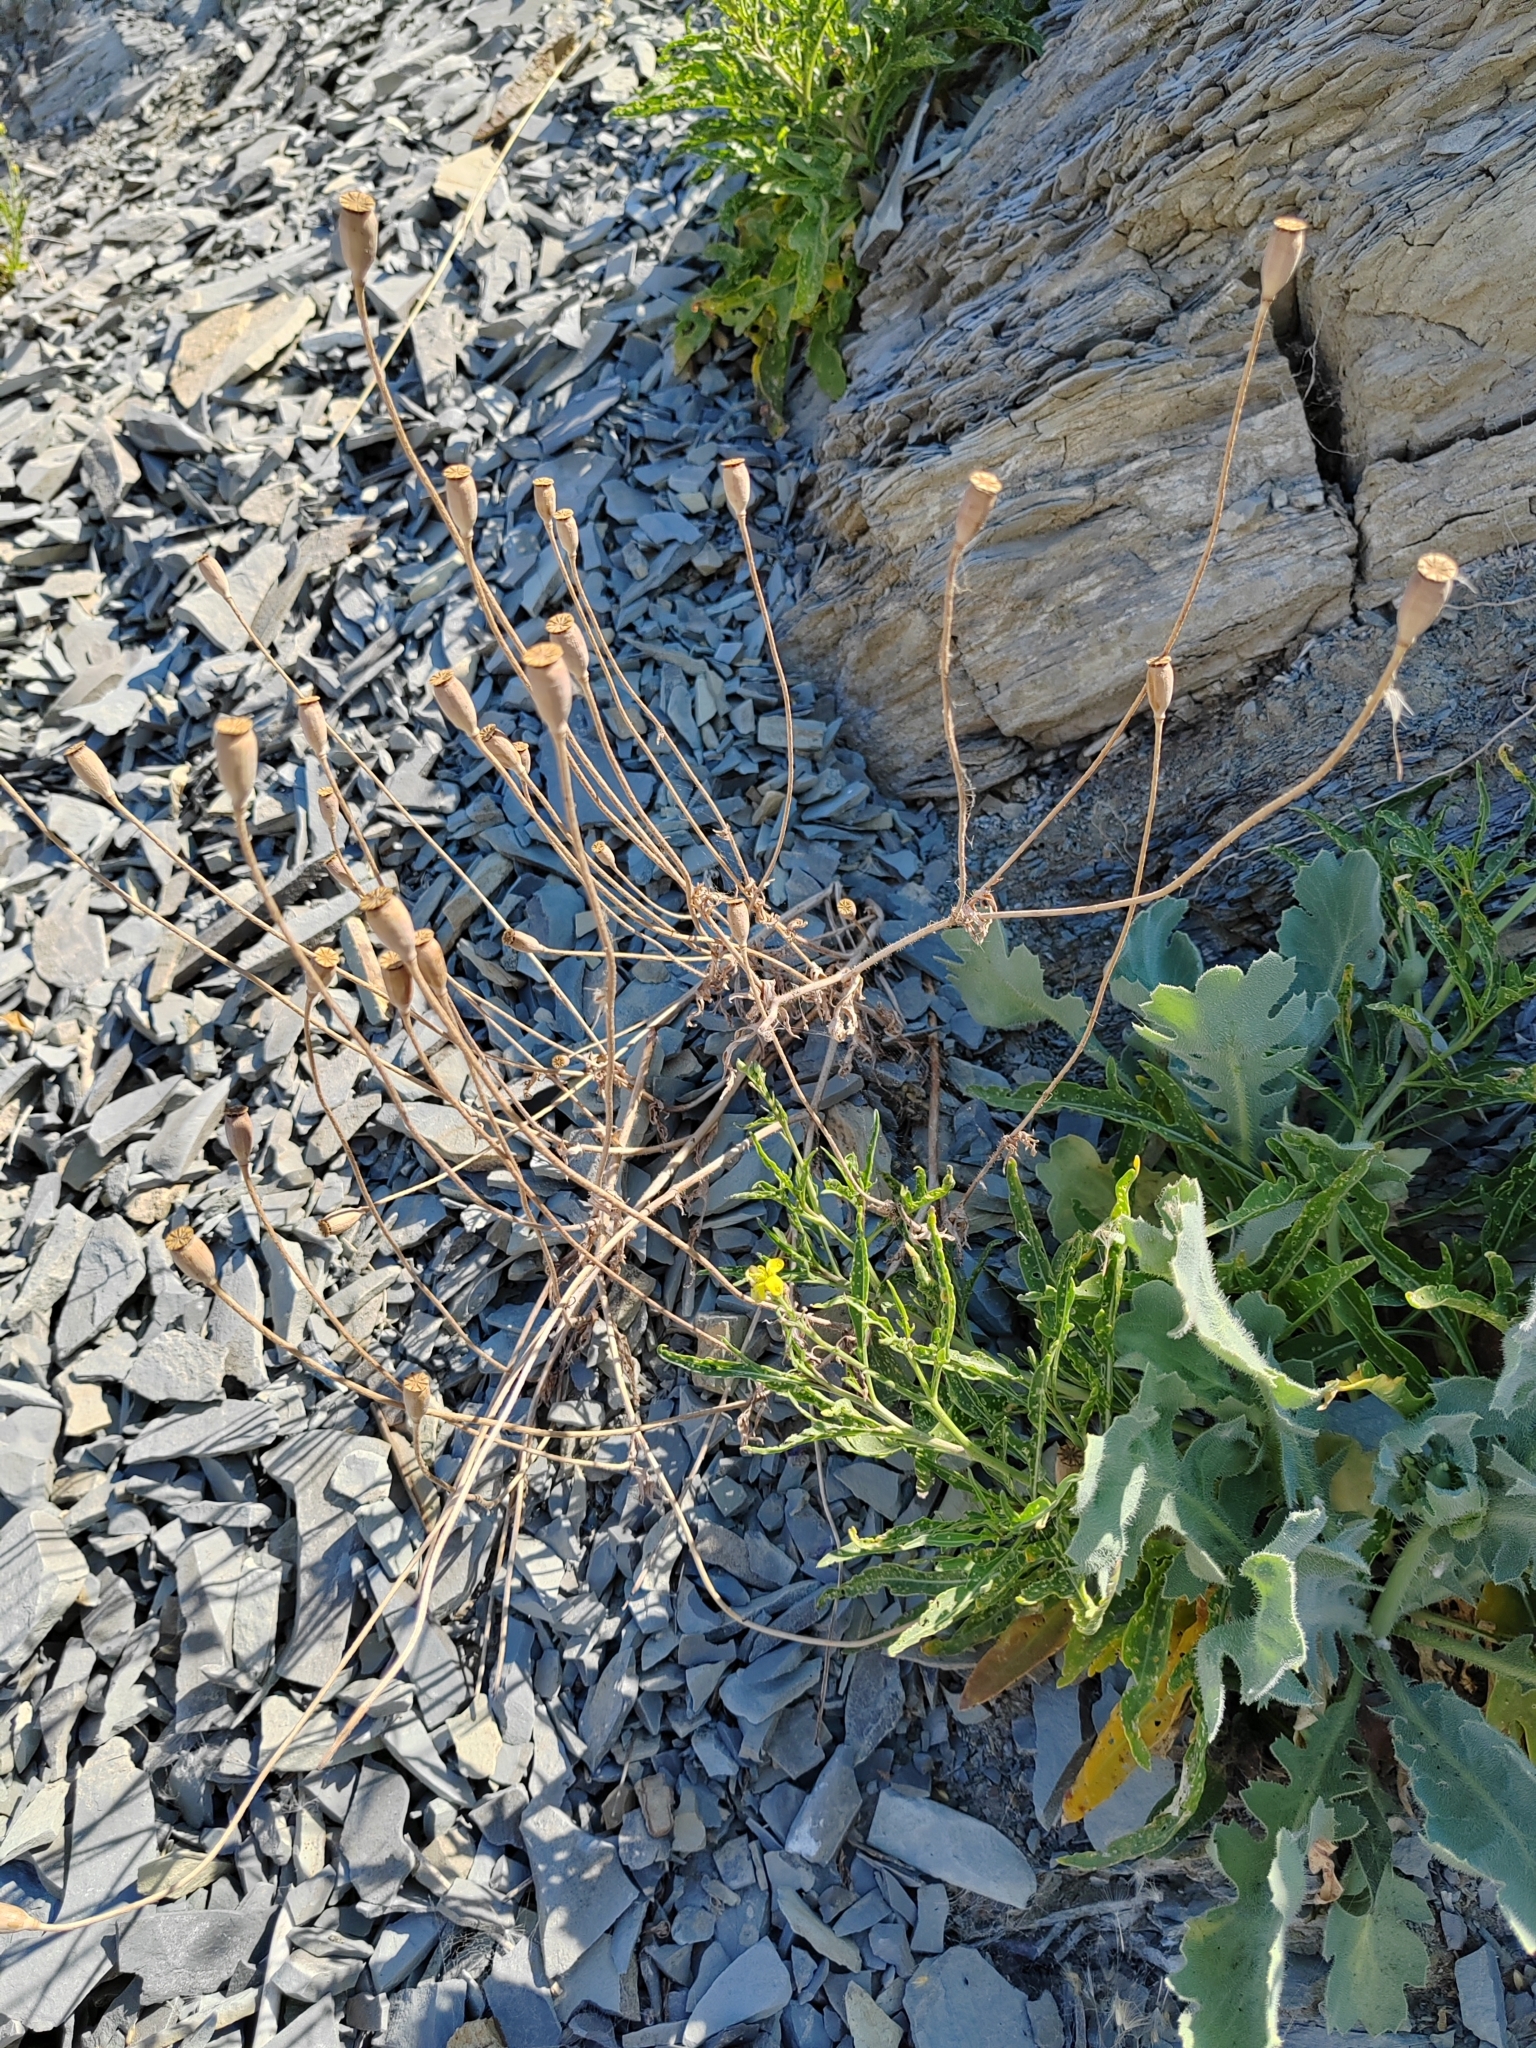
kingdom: Plantae
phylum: Tracheophyta
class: Magnoliopsida
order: Ranunculales
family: Papaveraceae
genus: Papaver
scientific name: Papaver dubium
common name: Long-headed poppy
